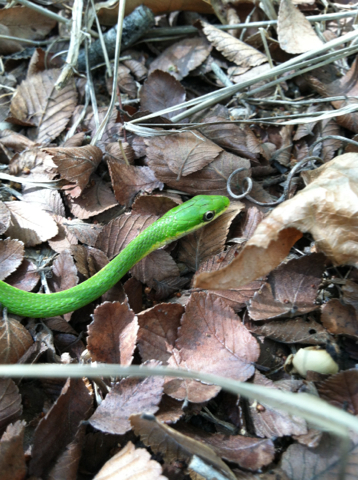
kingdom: Animalia
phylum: Chordata
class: Squamata
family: Colubridae
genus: Opheodrys
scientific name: Opheodrys aestivus
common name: Rough greensnake
